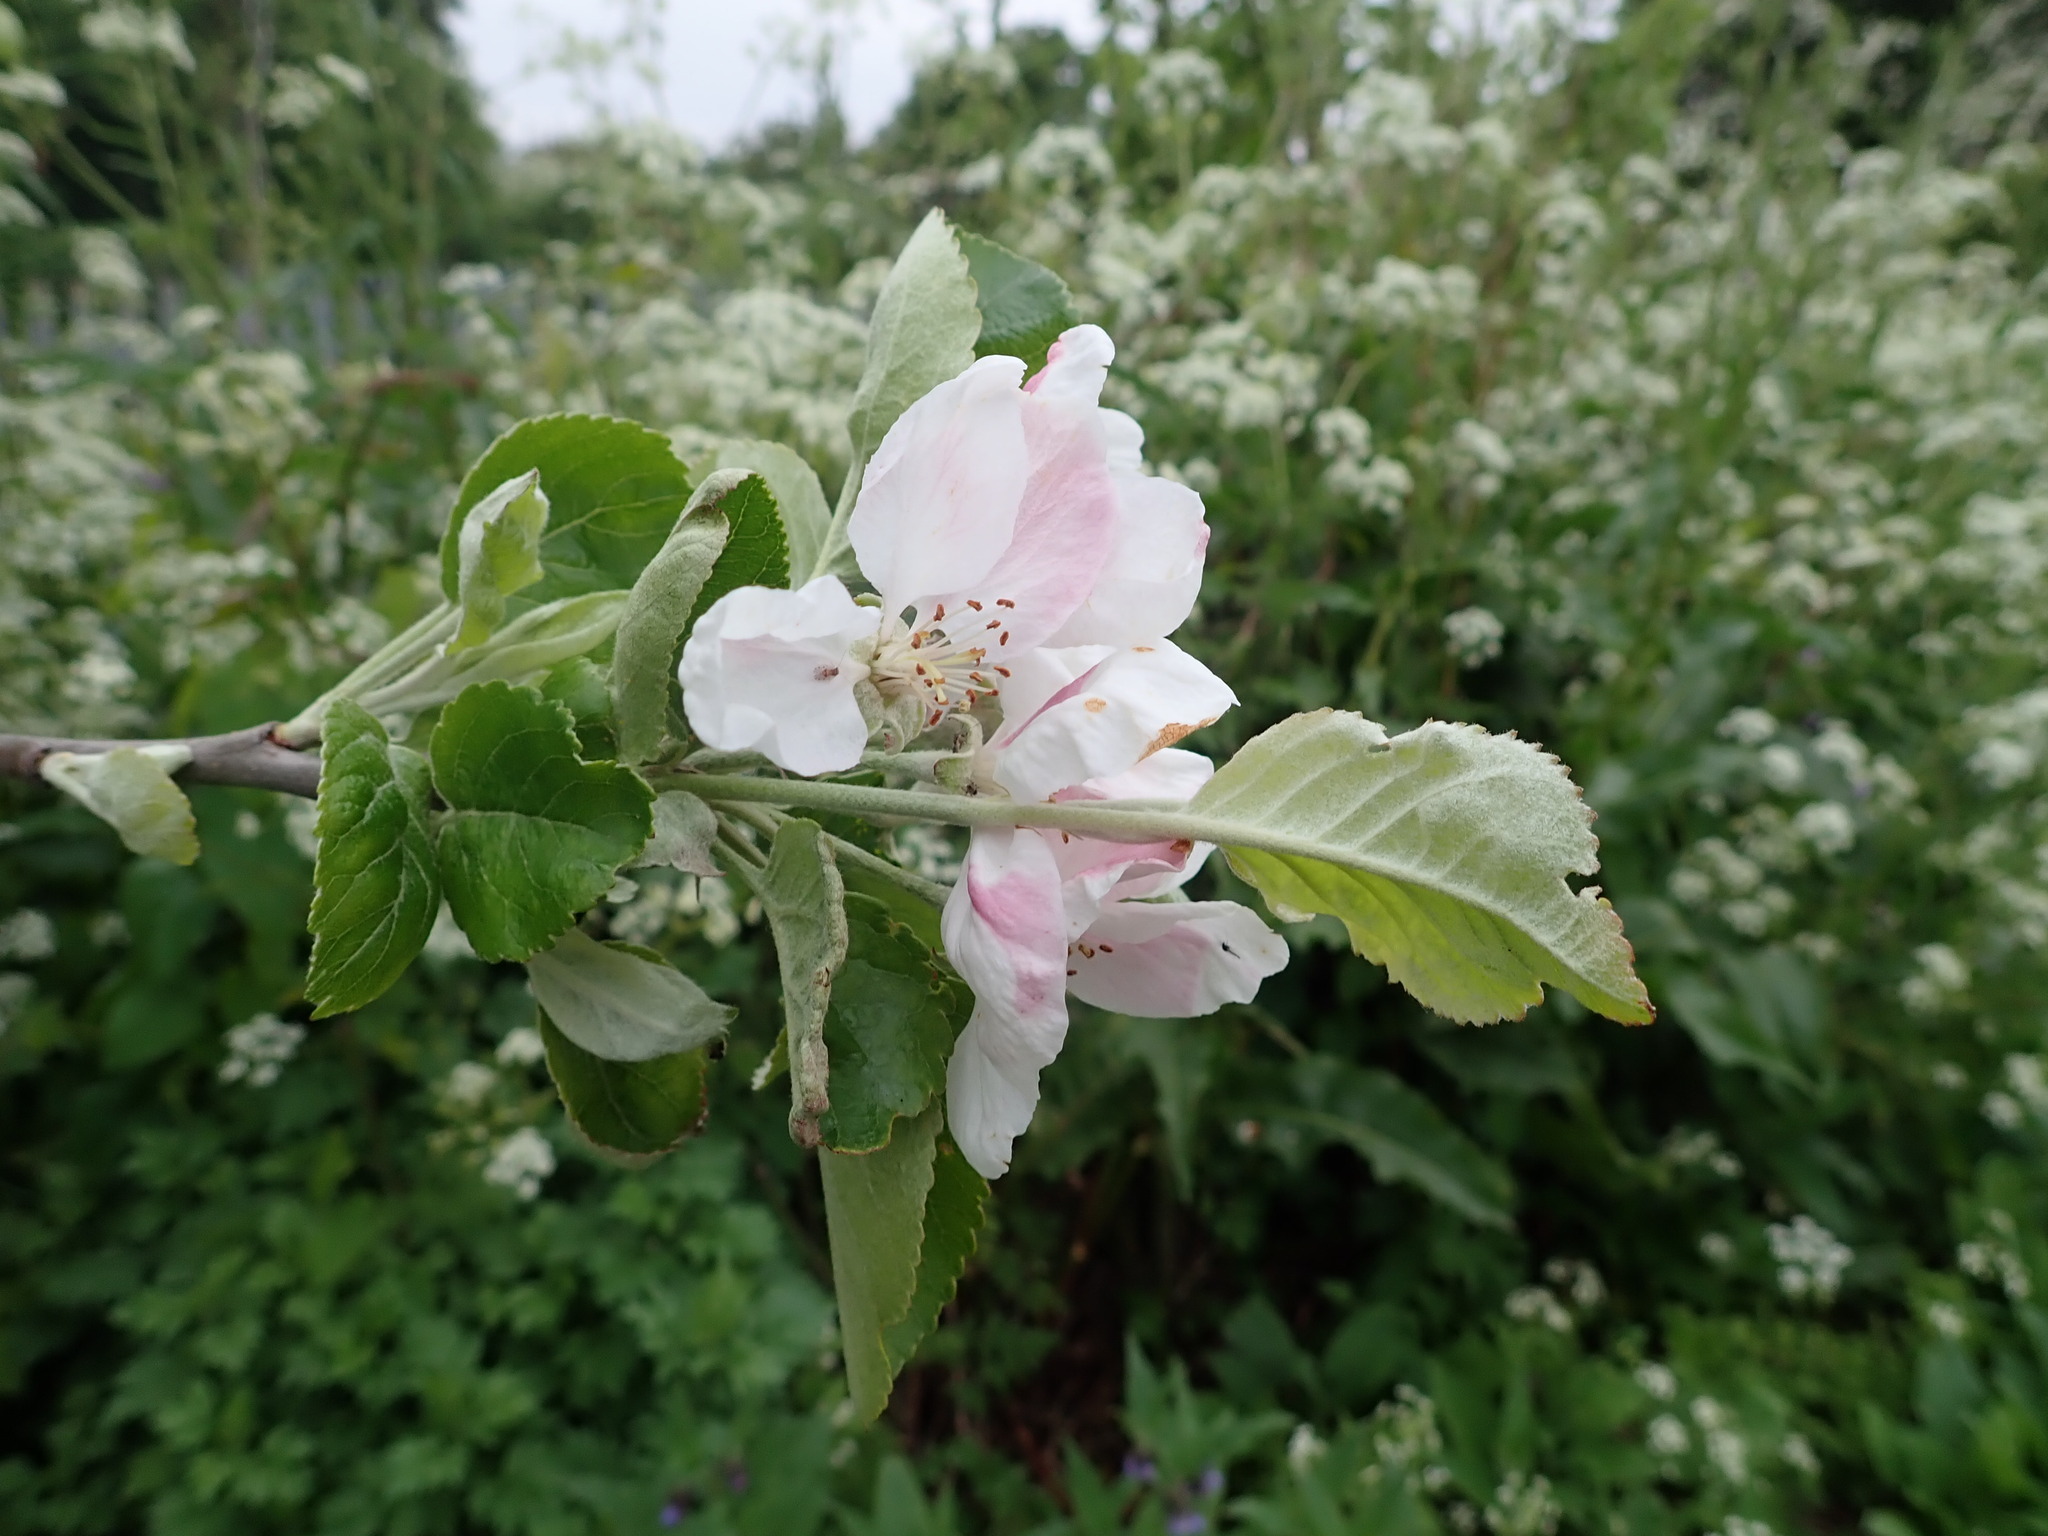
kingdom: Plantae
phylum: Tracheophyta
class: Magnoliopsida
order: Rosales
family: Rosaceae
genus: Malus
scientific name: Malus domestica
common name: Apple
